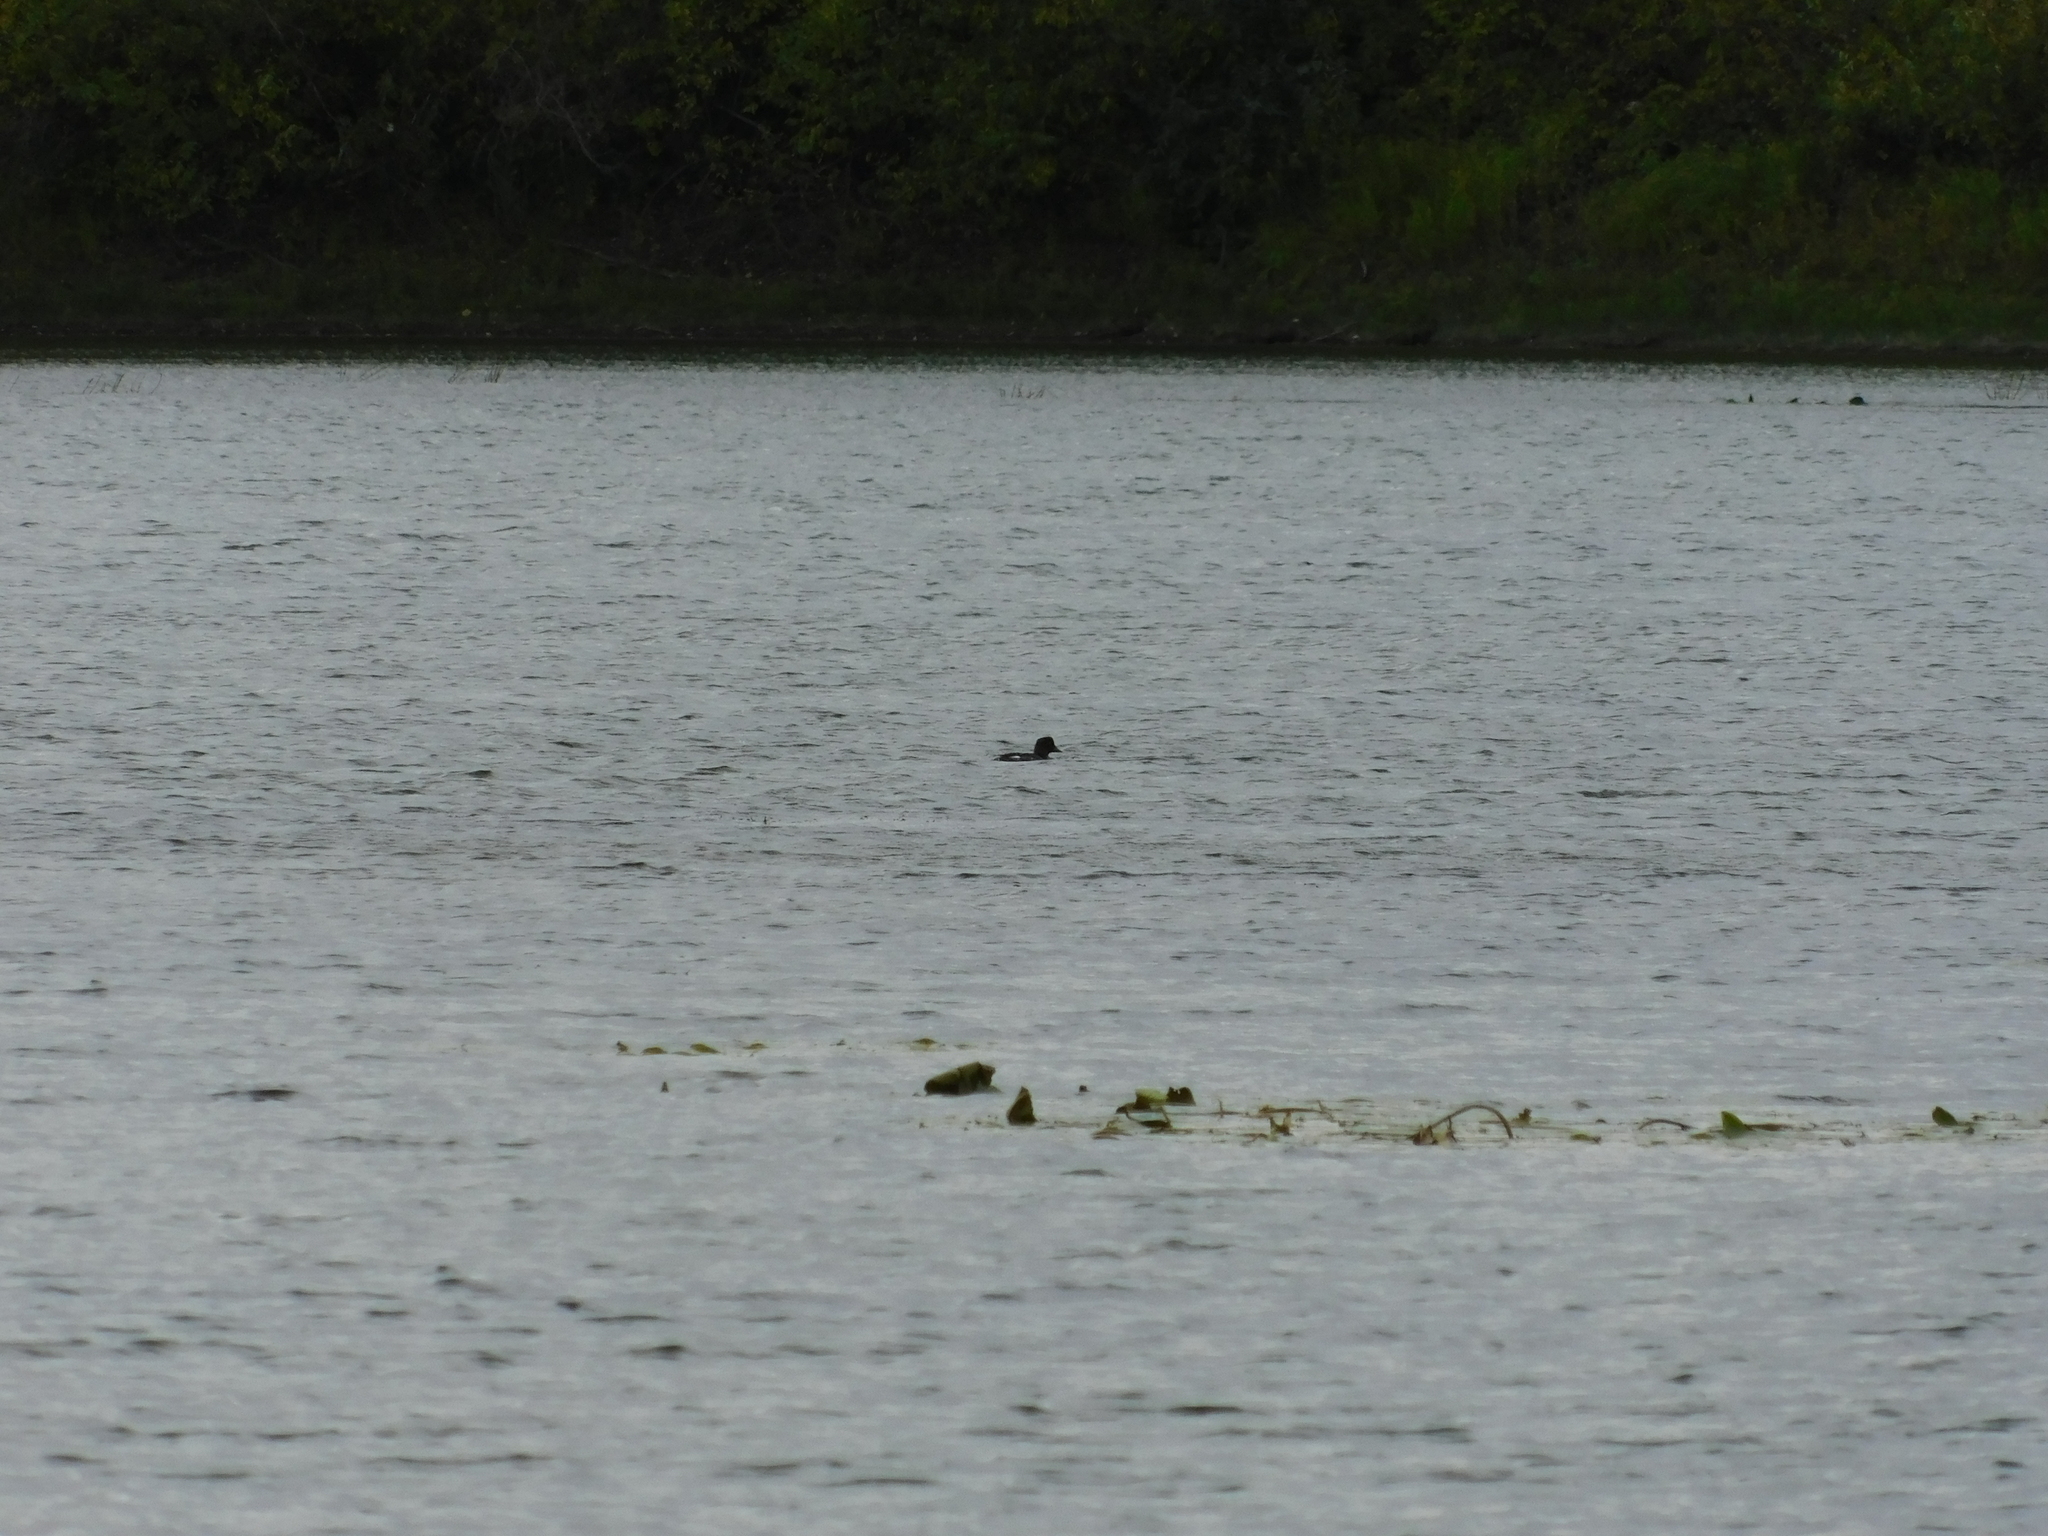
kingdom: Animalia
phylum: Chordata
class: Aves
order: Anseriformes
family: Anatidae
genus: Bucephala
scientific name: Bucephala clangula
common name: Common goldeneye
